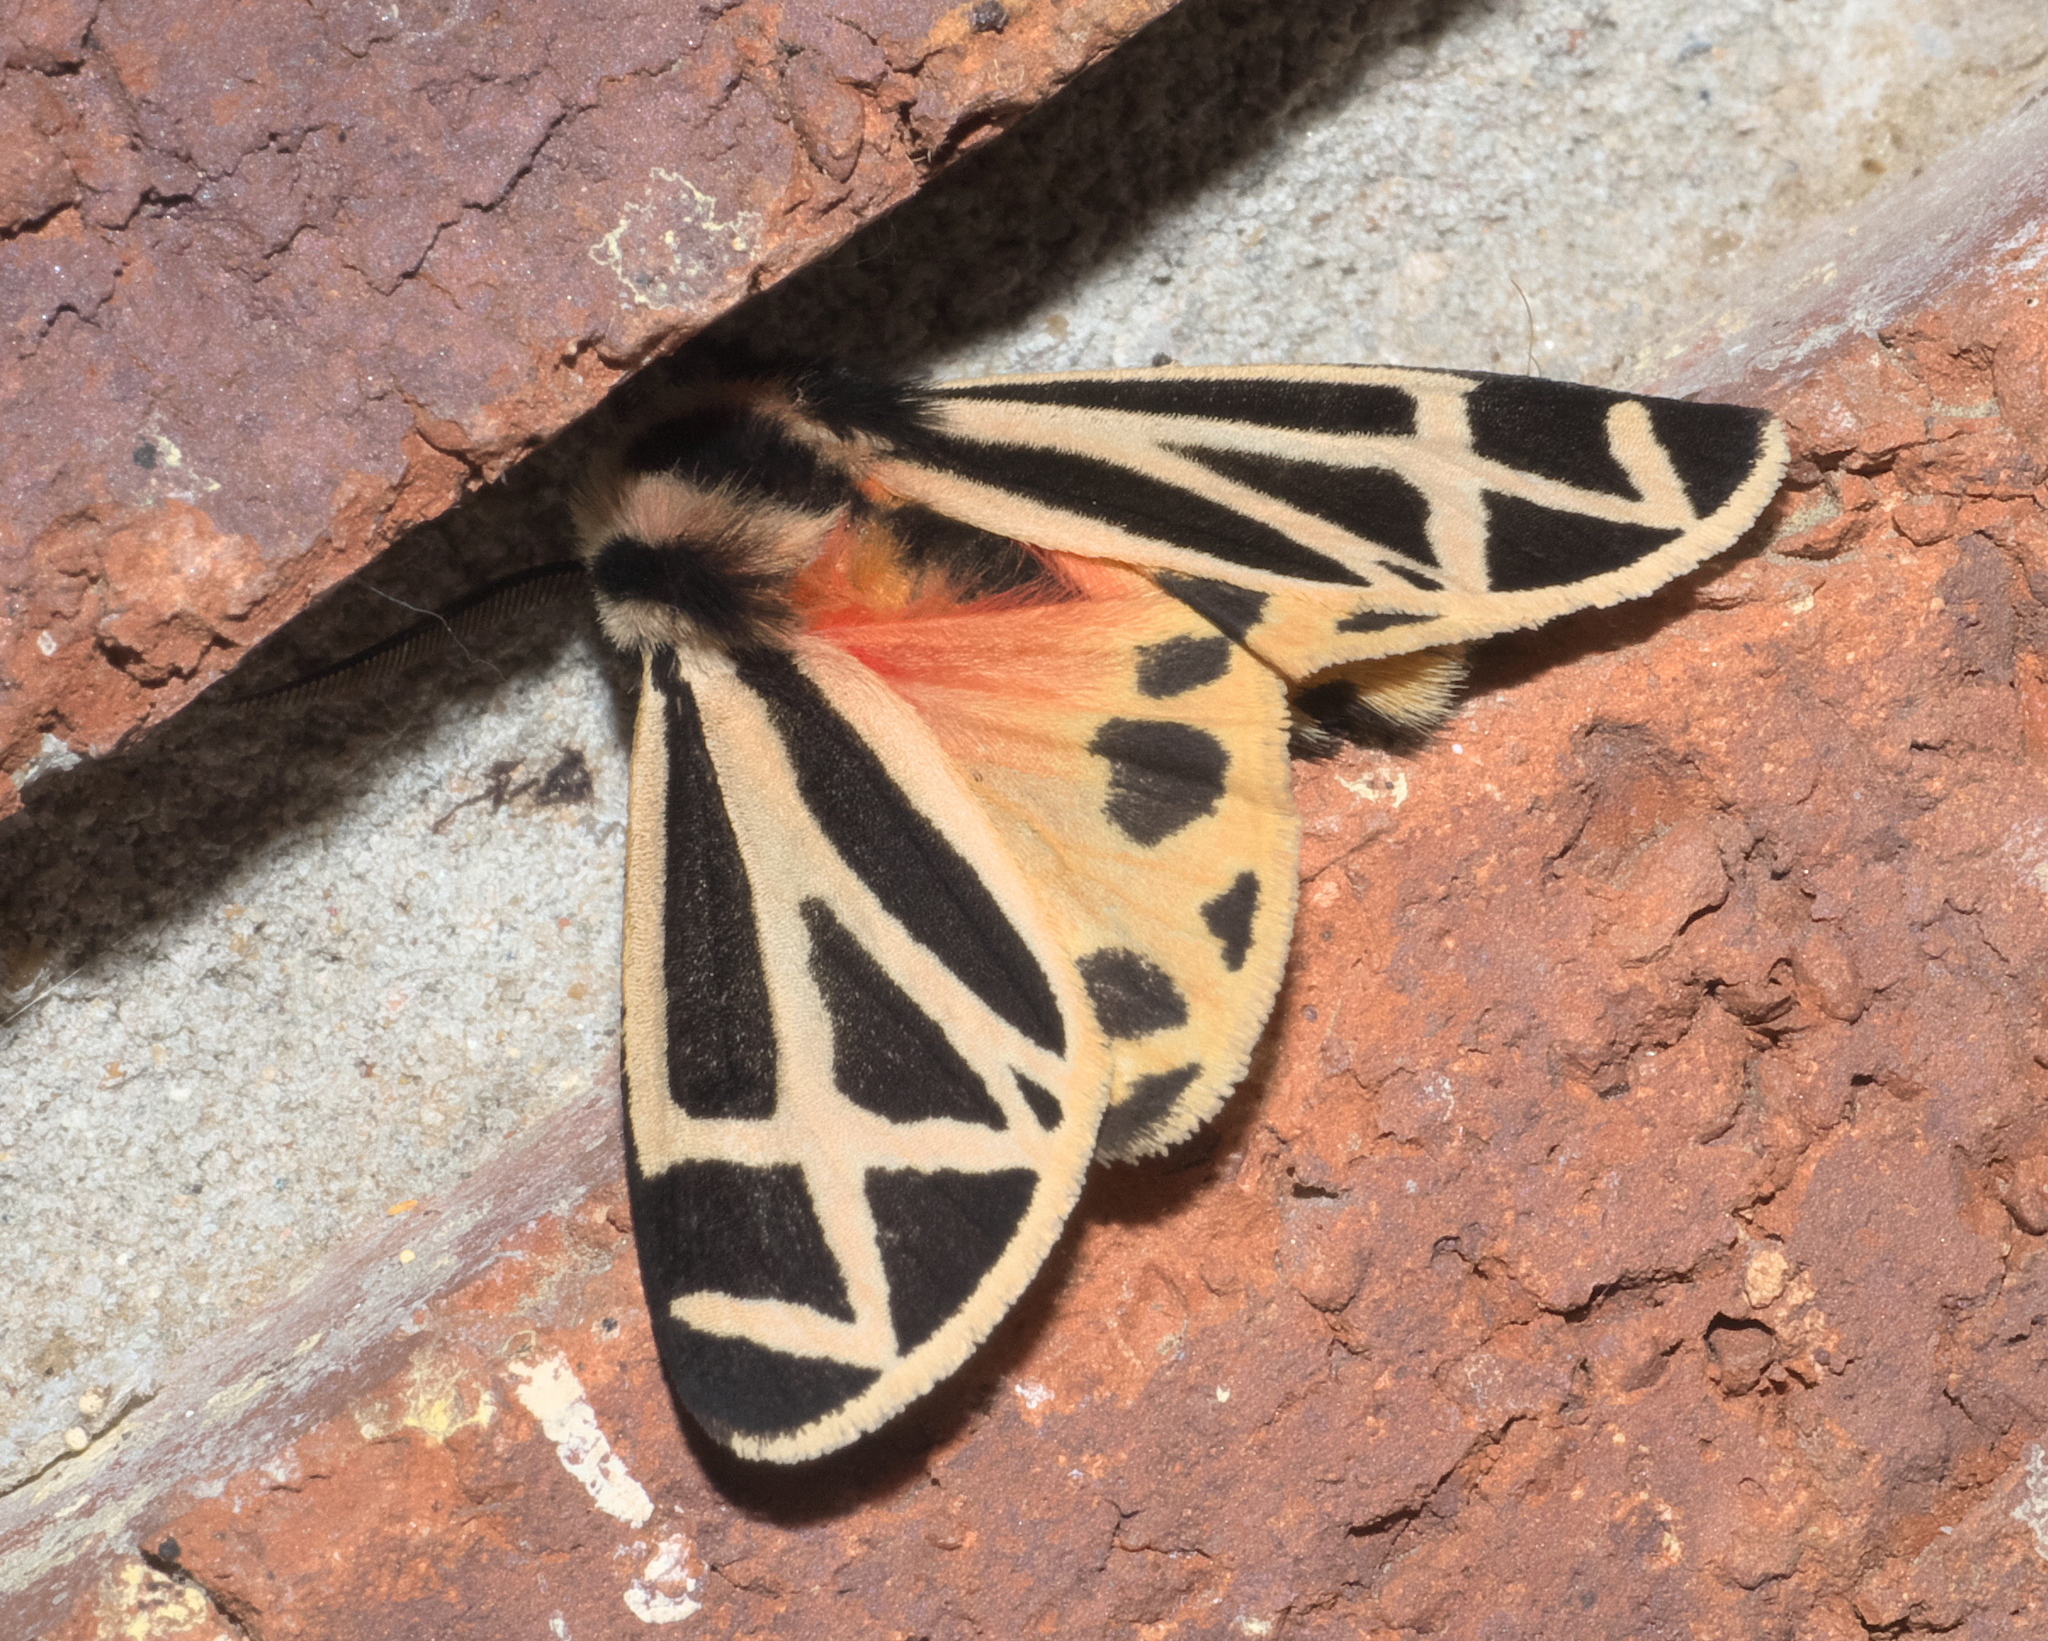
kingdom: Animalia
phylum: Arthropoda
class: Insecta
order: Lepidoptera
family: Erebidae
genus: Apantesis
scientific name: Apantesis carlotta
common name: Carlotta's tiger moth
